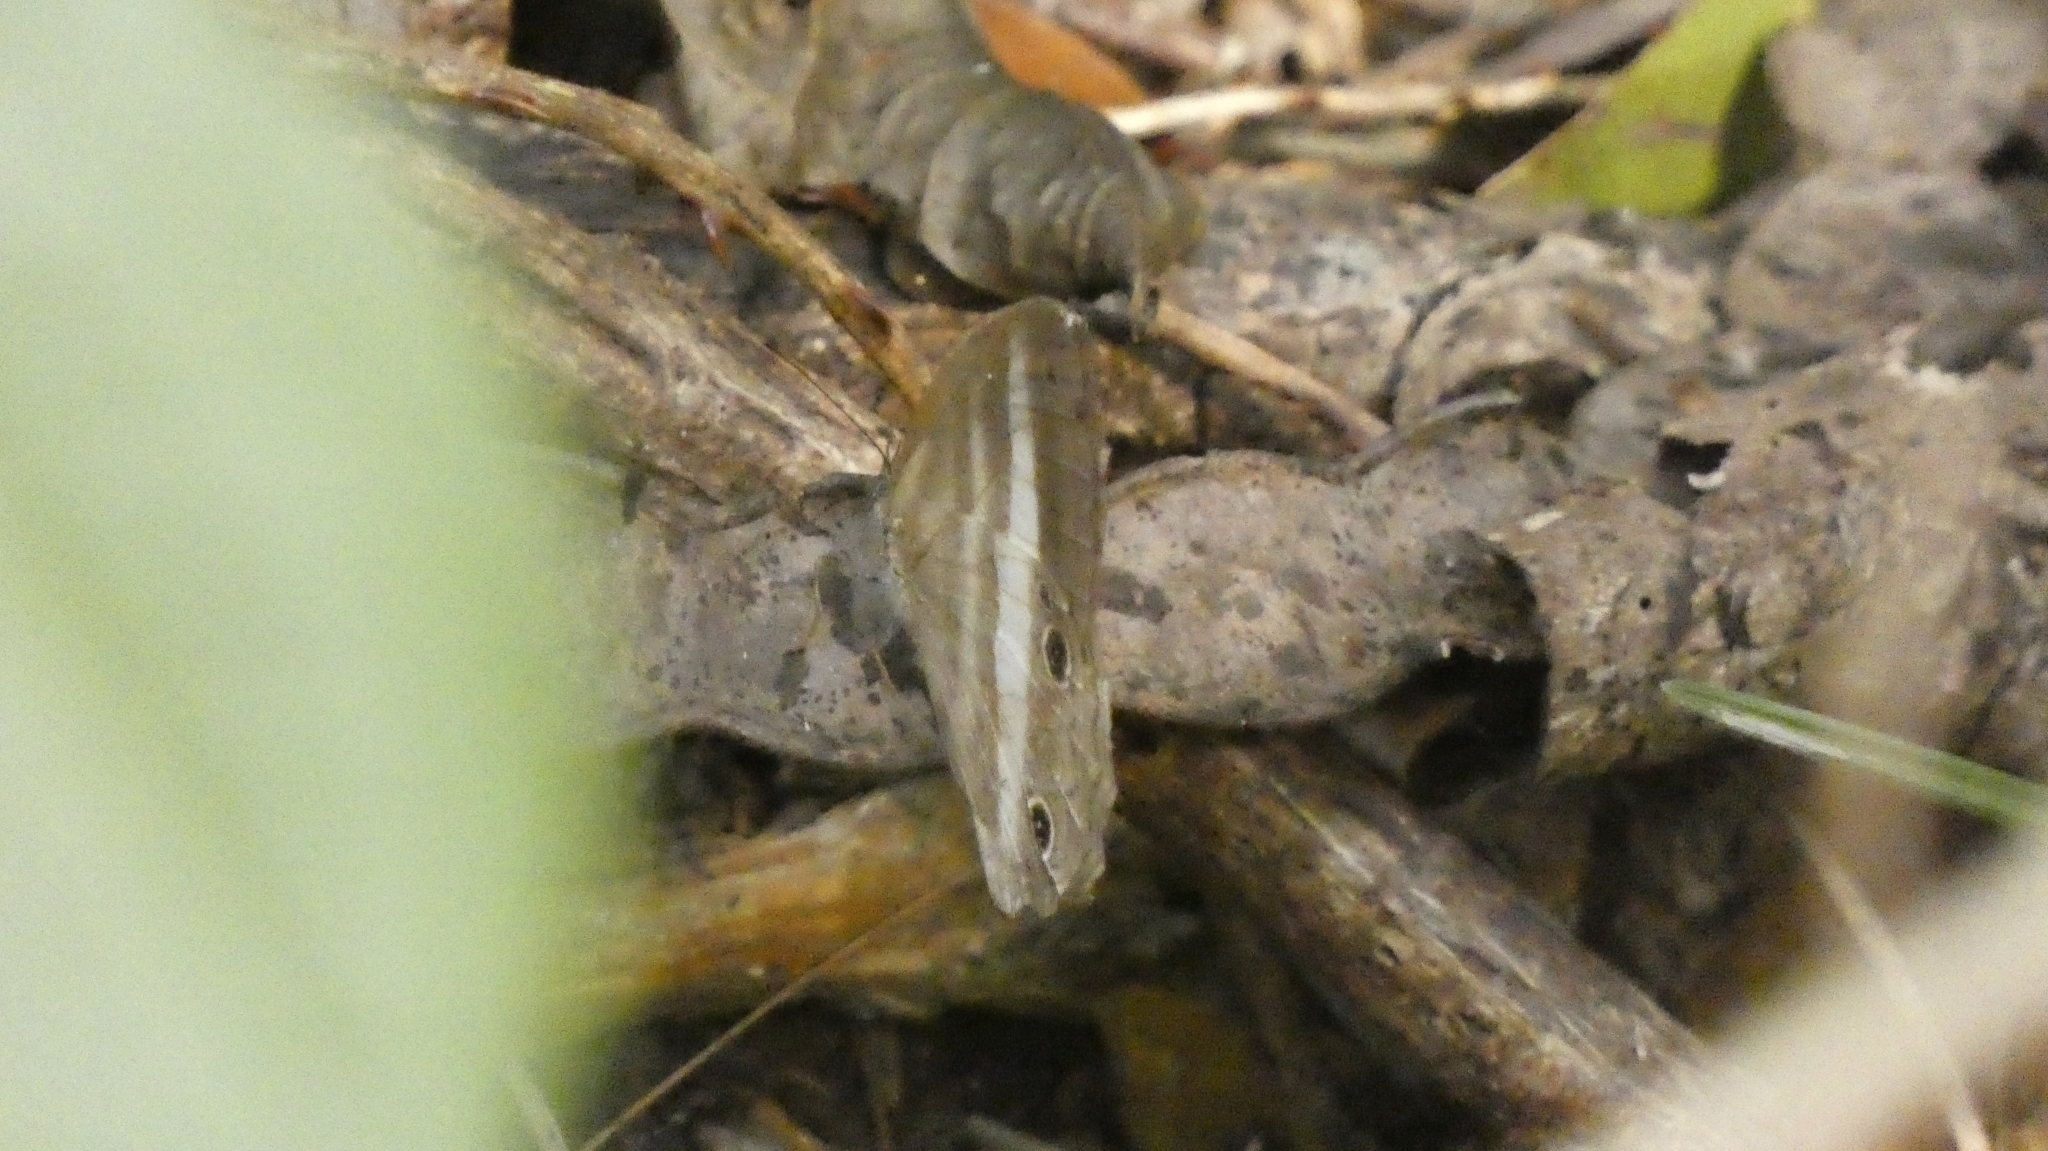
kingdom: Animalia
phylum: Arthropoda
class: Insecta
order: Lepidoptera
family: Nymphalidae
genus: Pareuptychia
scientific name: Pareuptychia hesione
